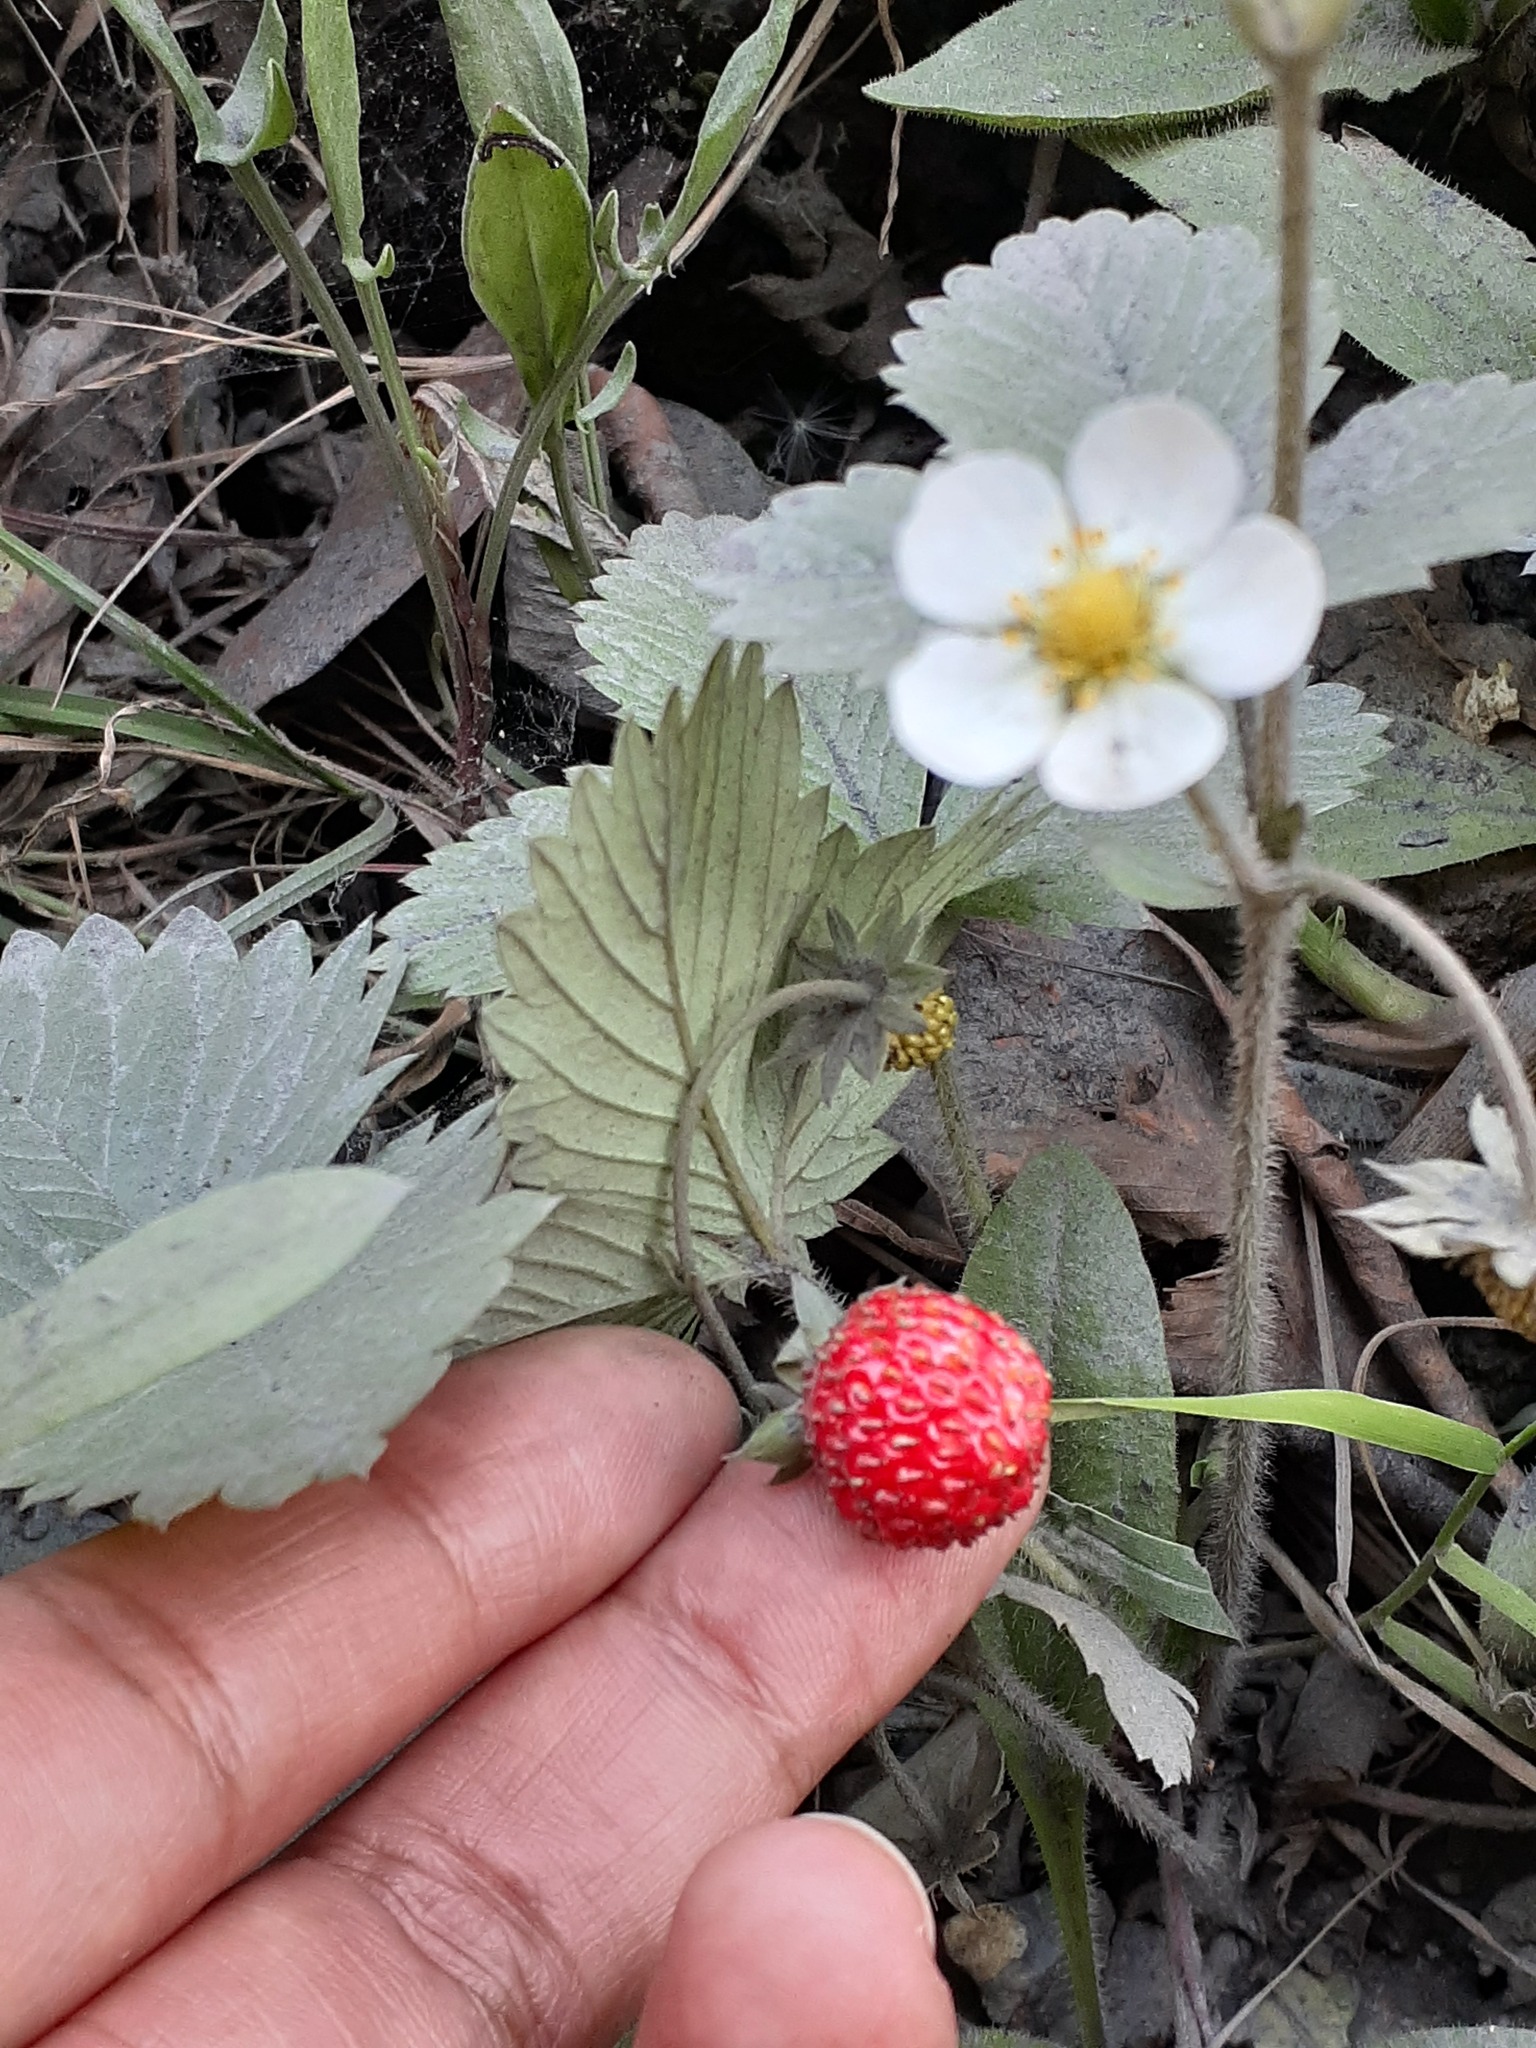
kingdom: Plantae
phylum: Tracheophyta
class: Magnoliopsida
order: Rosales
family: Rosaceae
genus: Fragaria
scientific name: Fragaria vesca
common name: Wild strawberry
